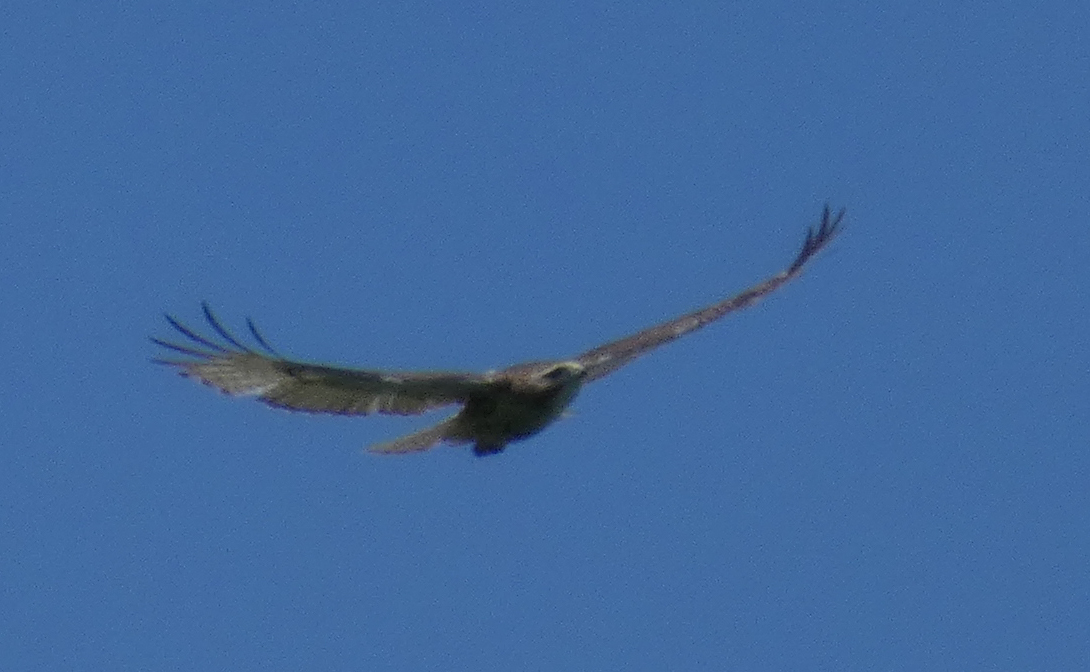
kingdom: Animalia
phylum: Chordata
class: Aves
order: Accipitriformes
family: Accipitridae
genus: Buteo
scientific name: Buteo jamaicensis
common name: Red-tailed hawk
